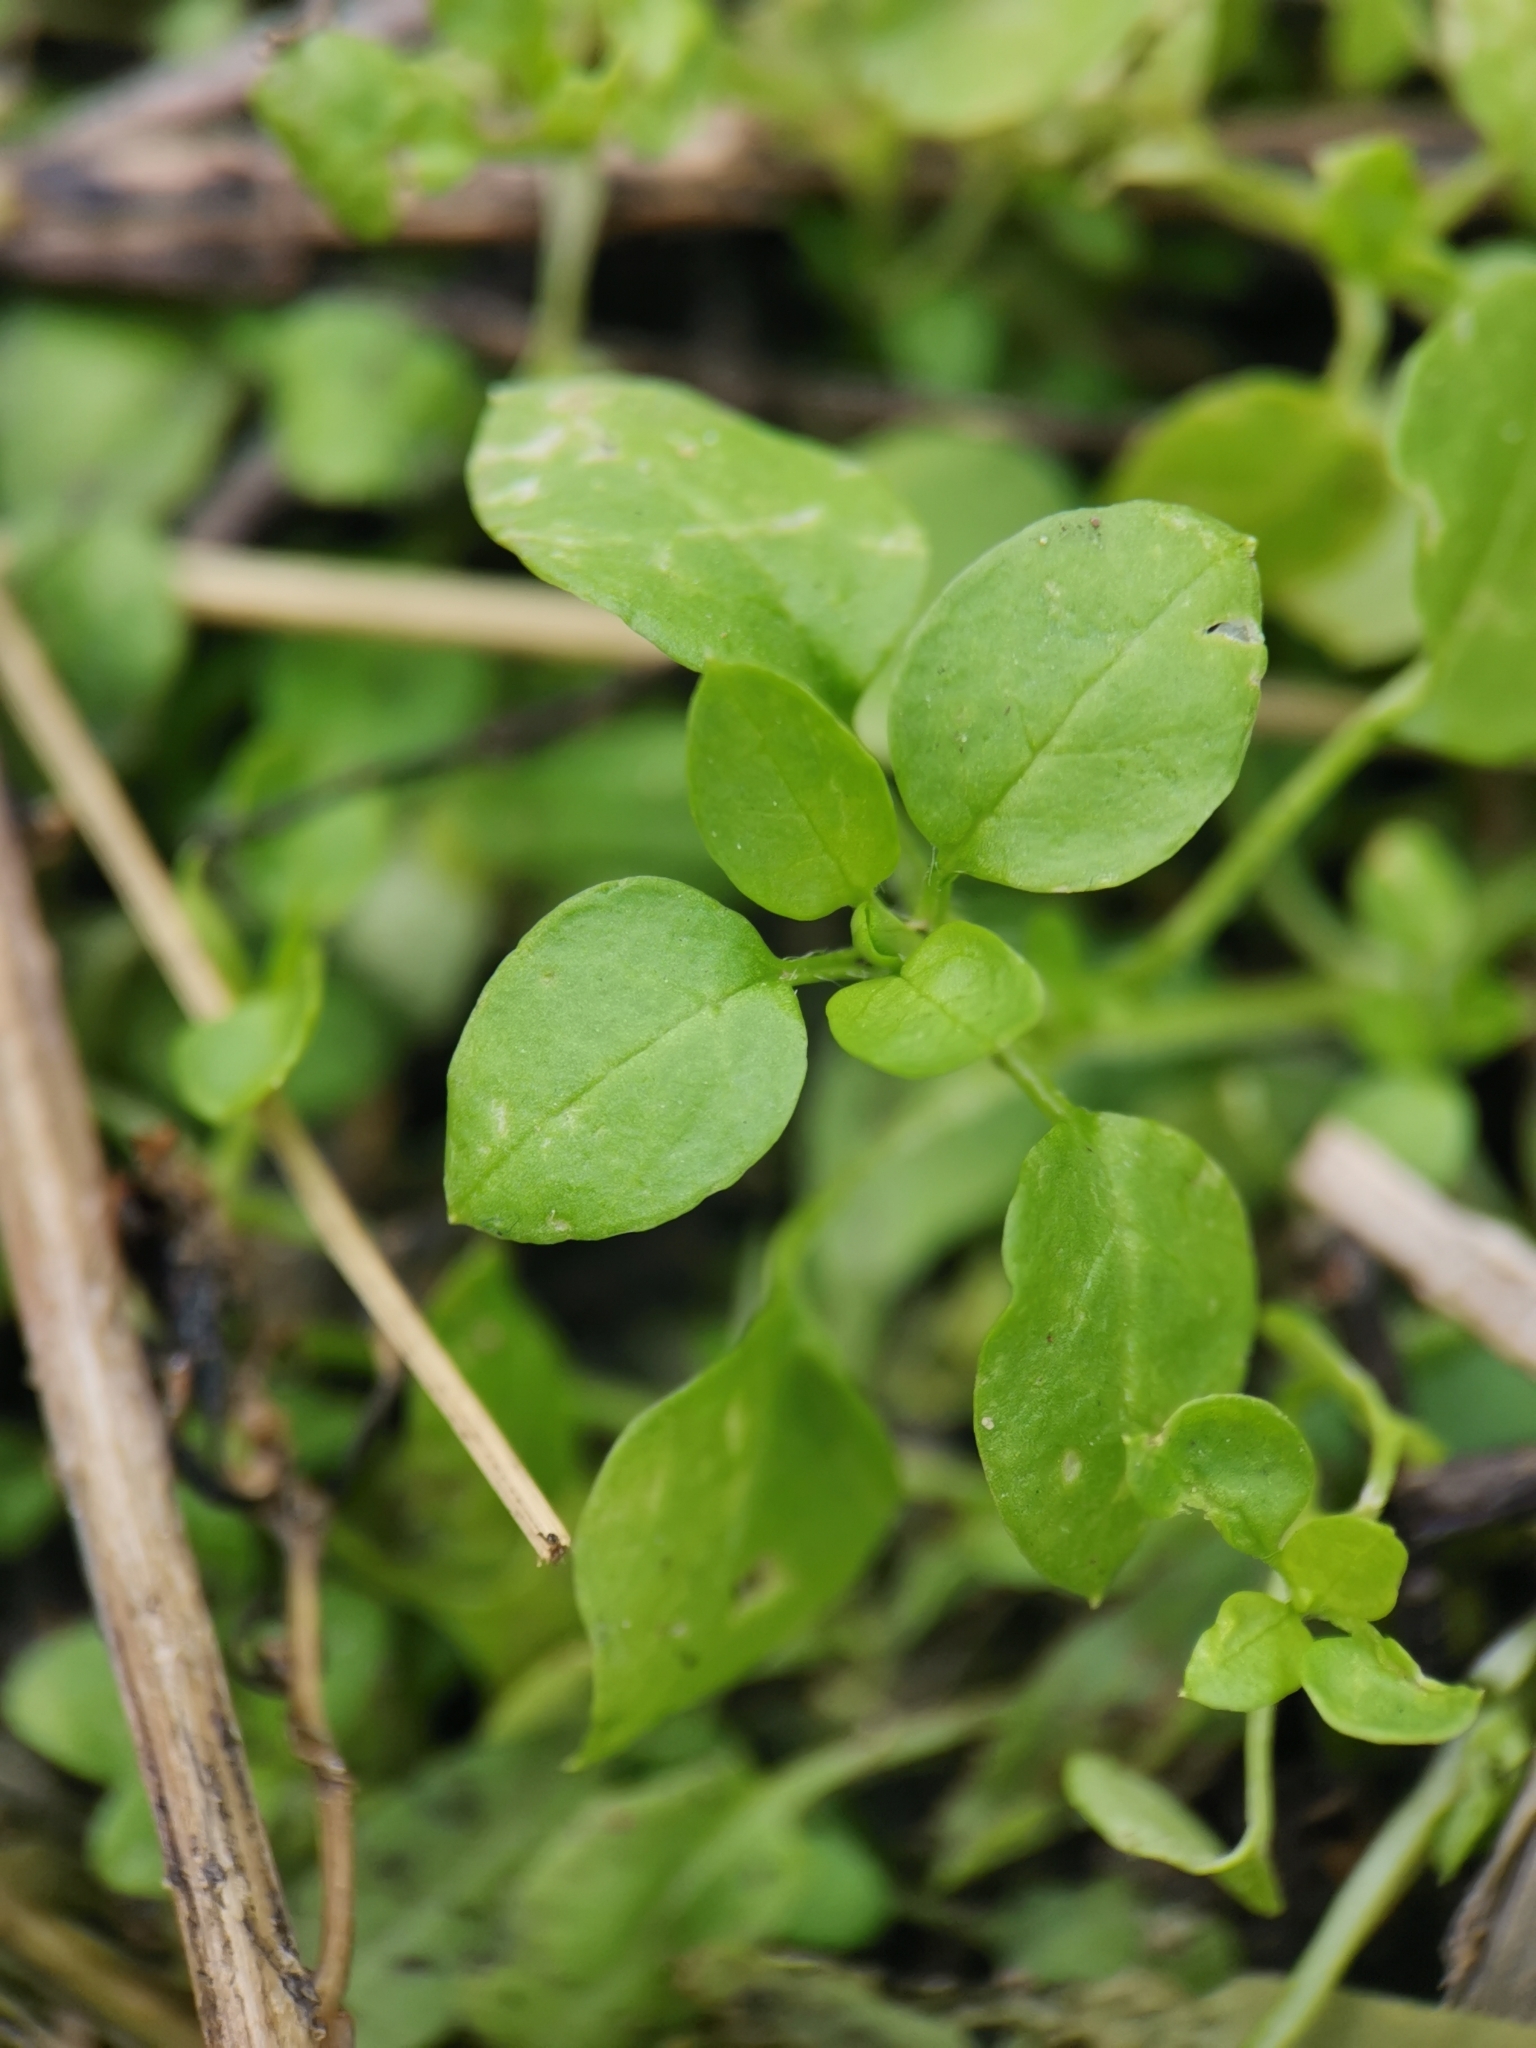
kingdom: Plantae
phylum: Tracheophyta
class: Magnoliopsida
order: Caryophyllales
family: Caryophyllaceae
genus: Stellaria
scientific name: Stellaria media
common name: Common chickweed
